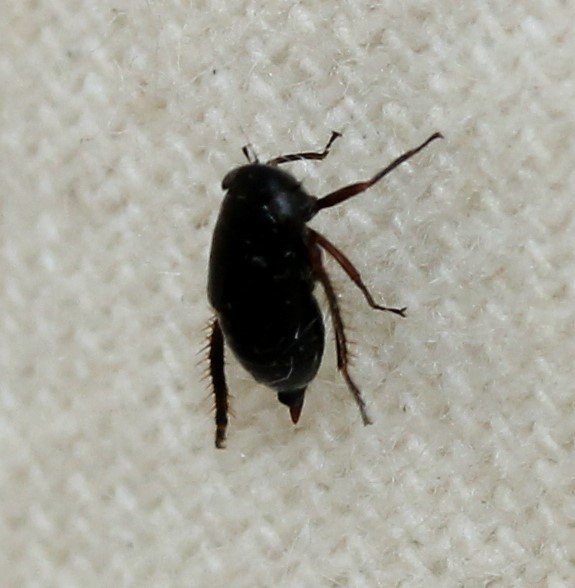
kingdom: Animalia
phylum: Arthropoda
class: Insecta
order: Hemiptera
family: Cicadellidae
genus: Driotura
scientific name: Driotura gammaroides
